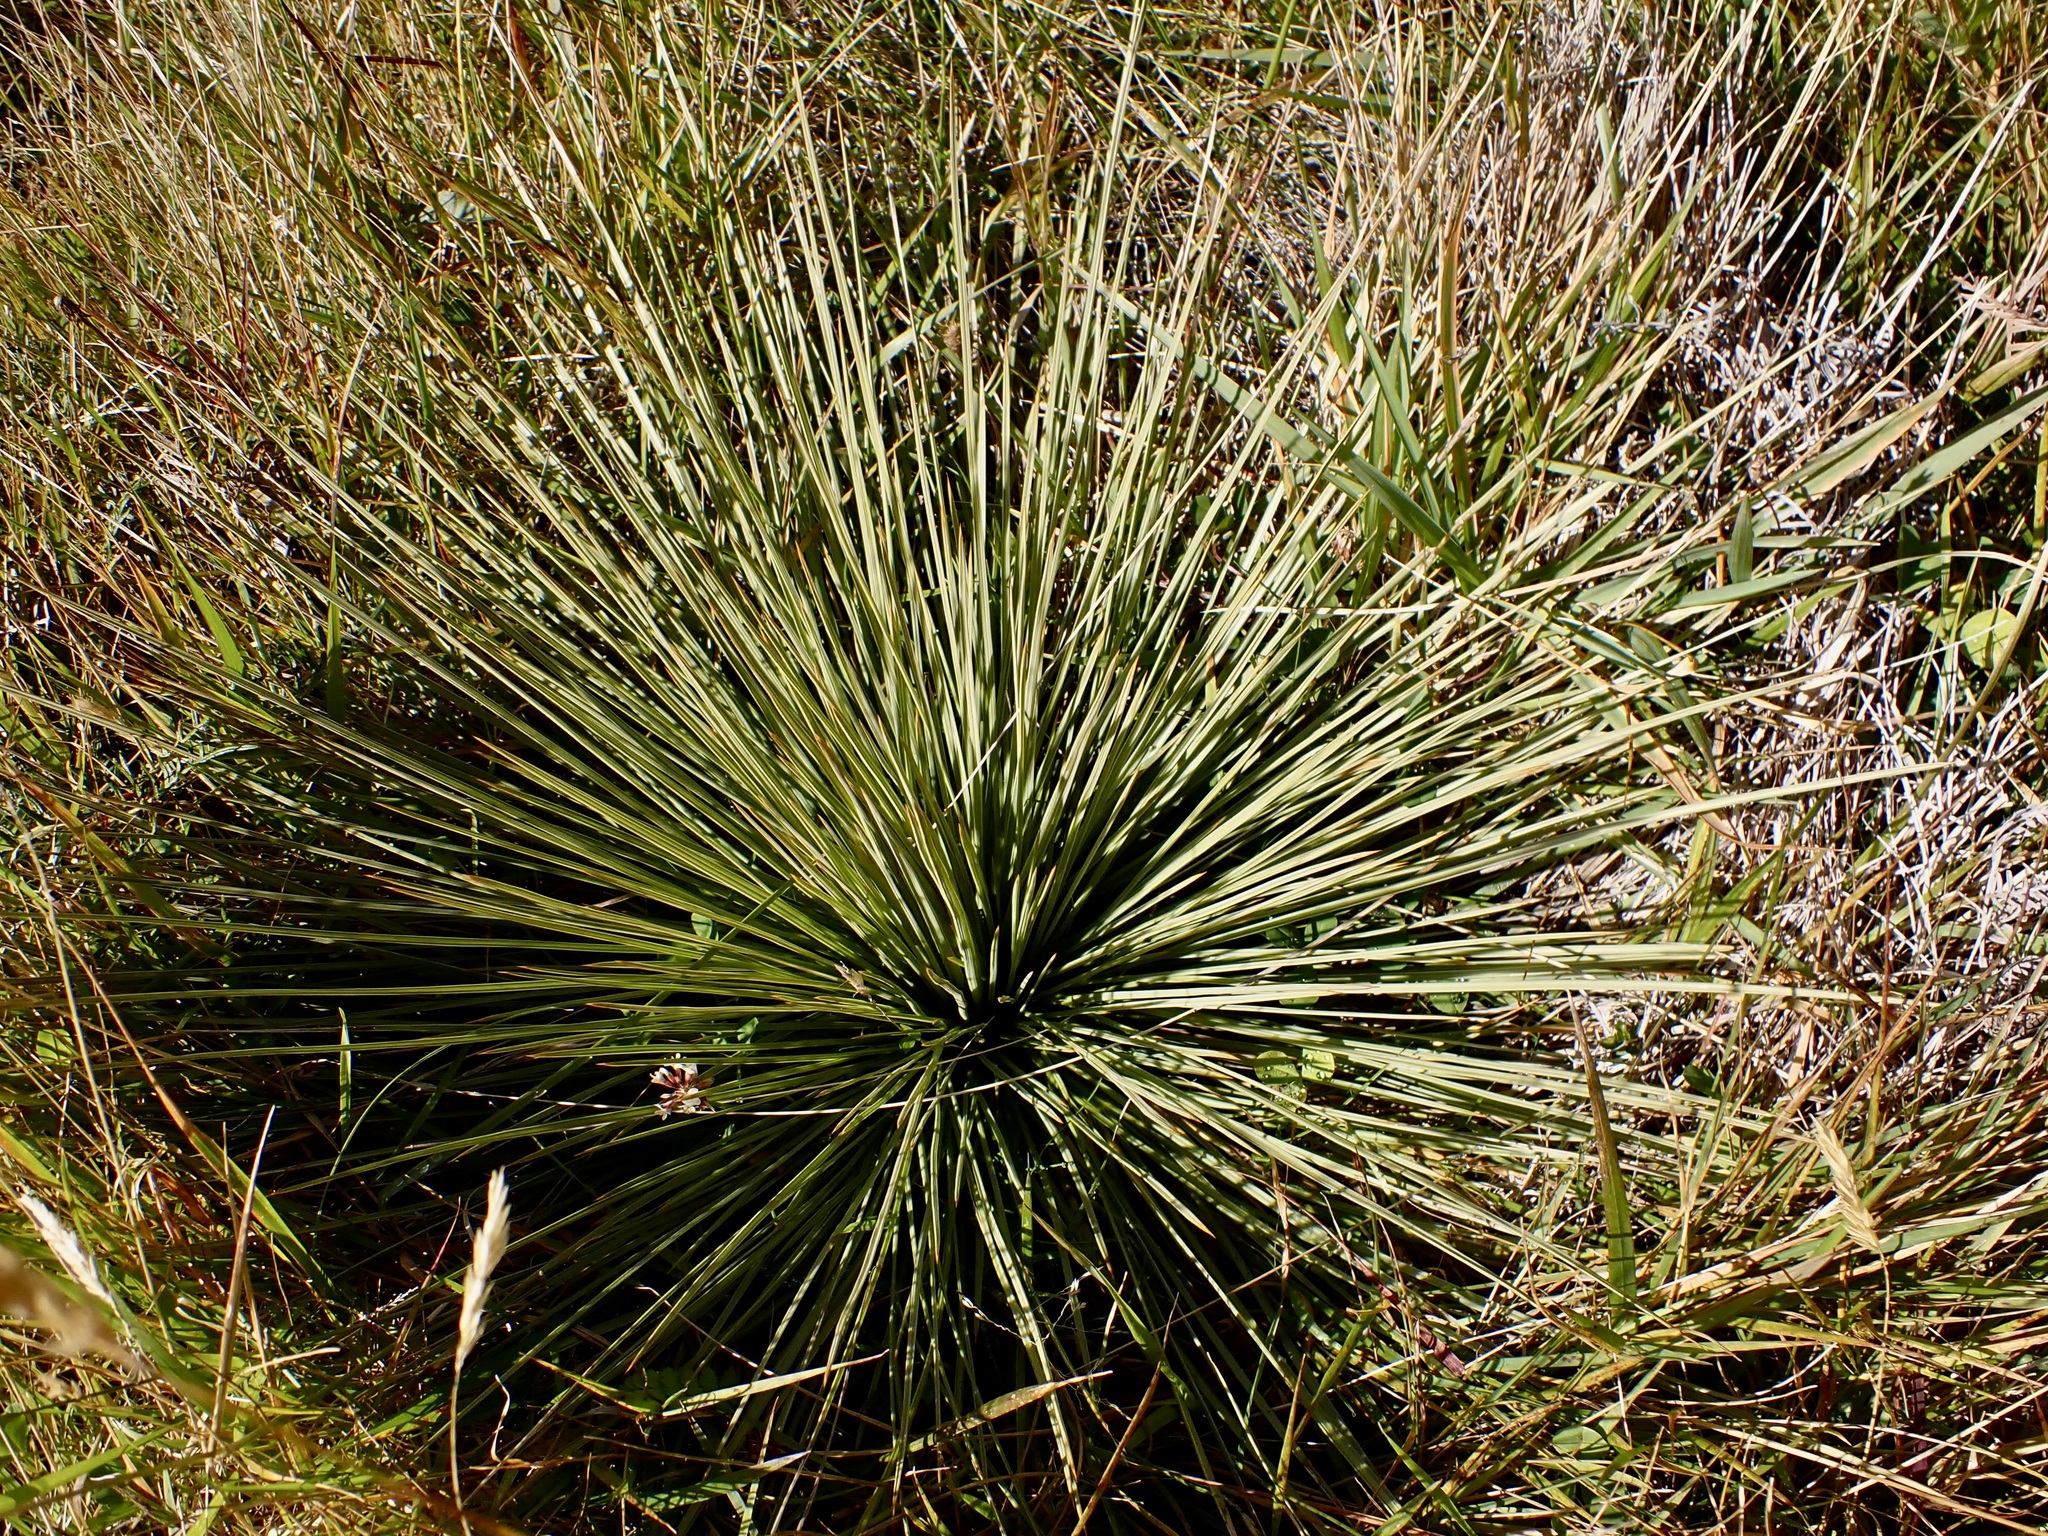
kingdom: Plantae
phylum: Tracheophyta
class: Magnoliopsida
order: Apiales
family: Apiaceae
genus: Aciphylla
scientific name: Aciphylla subflabellata
